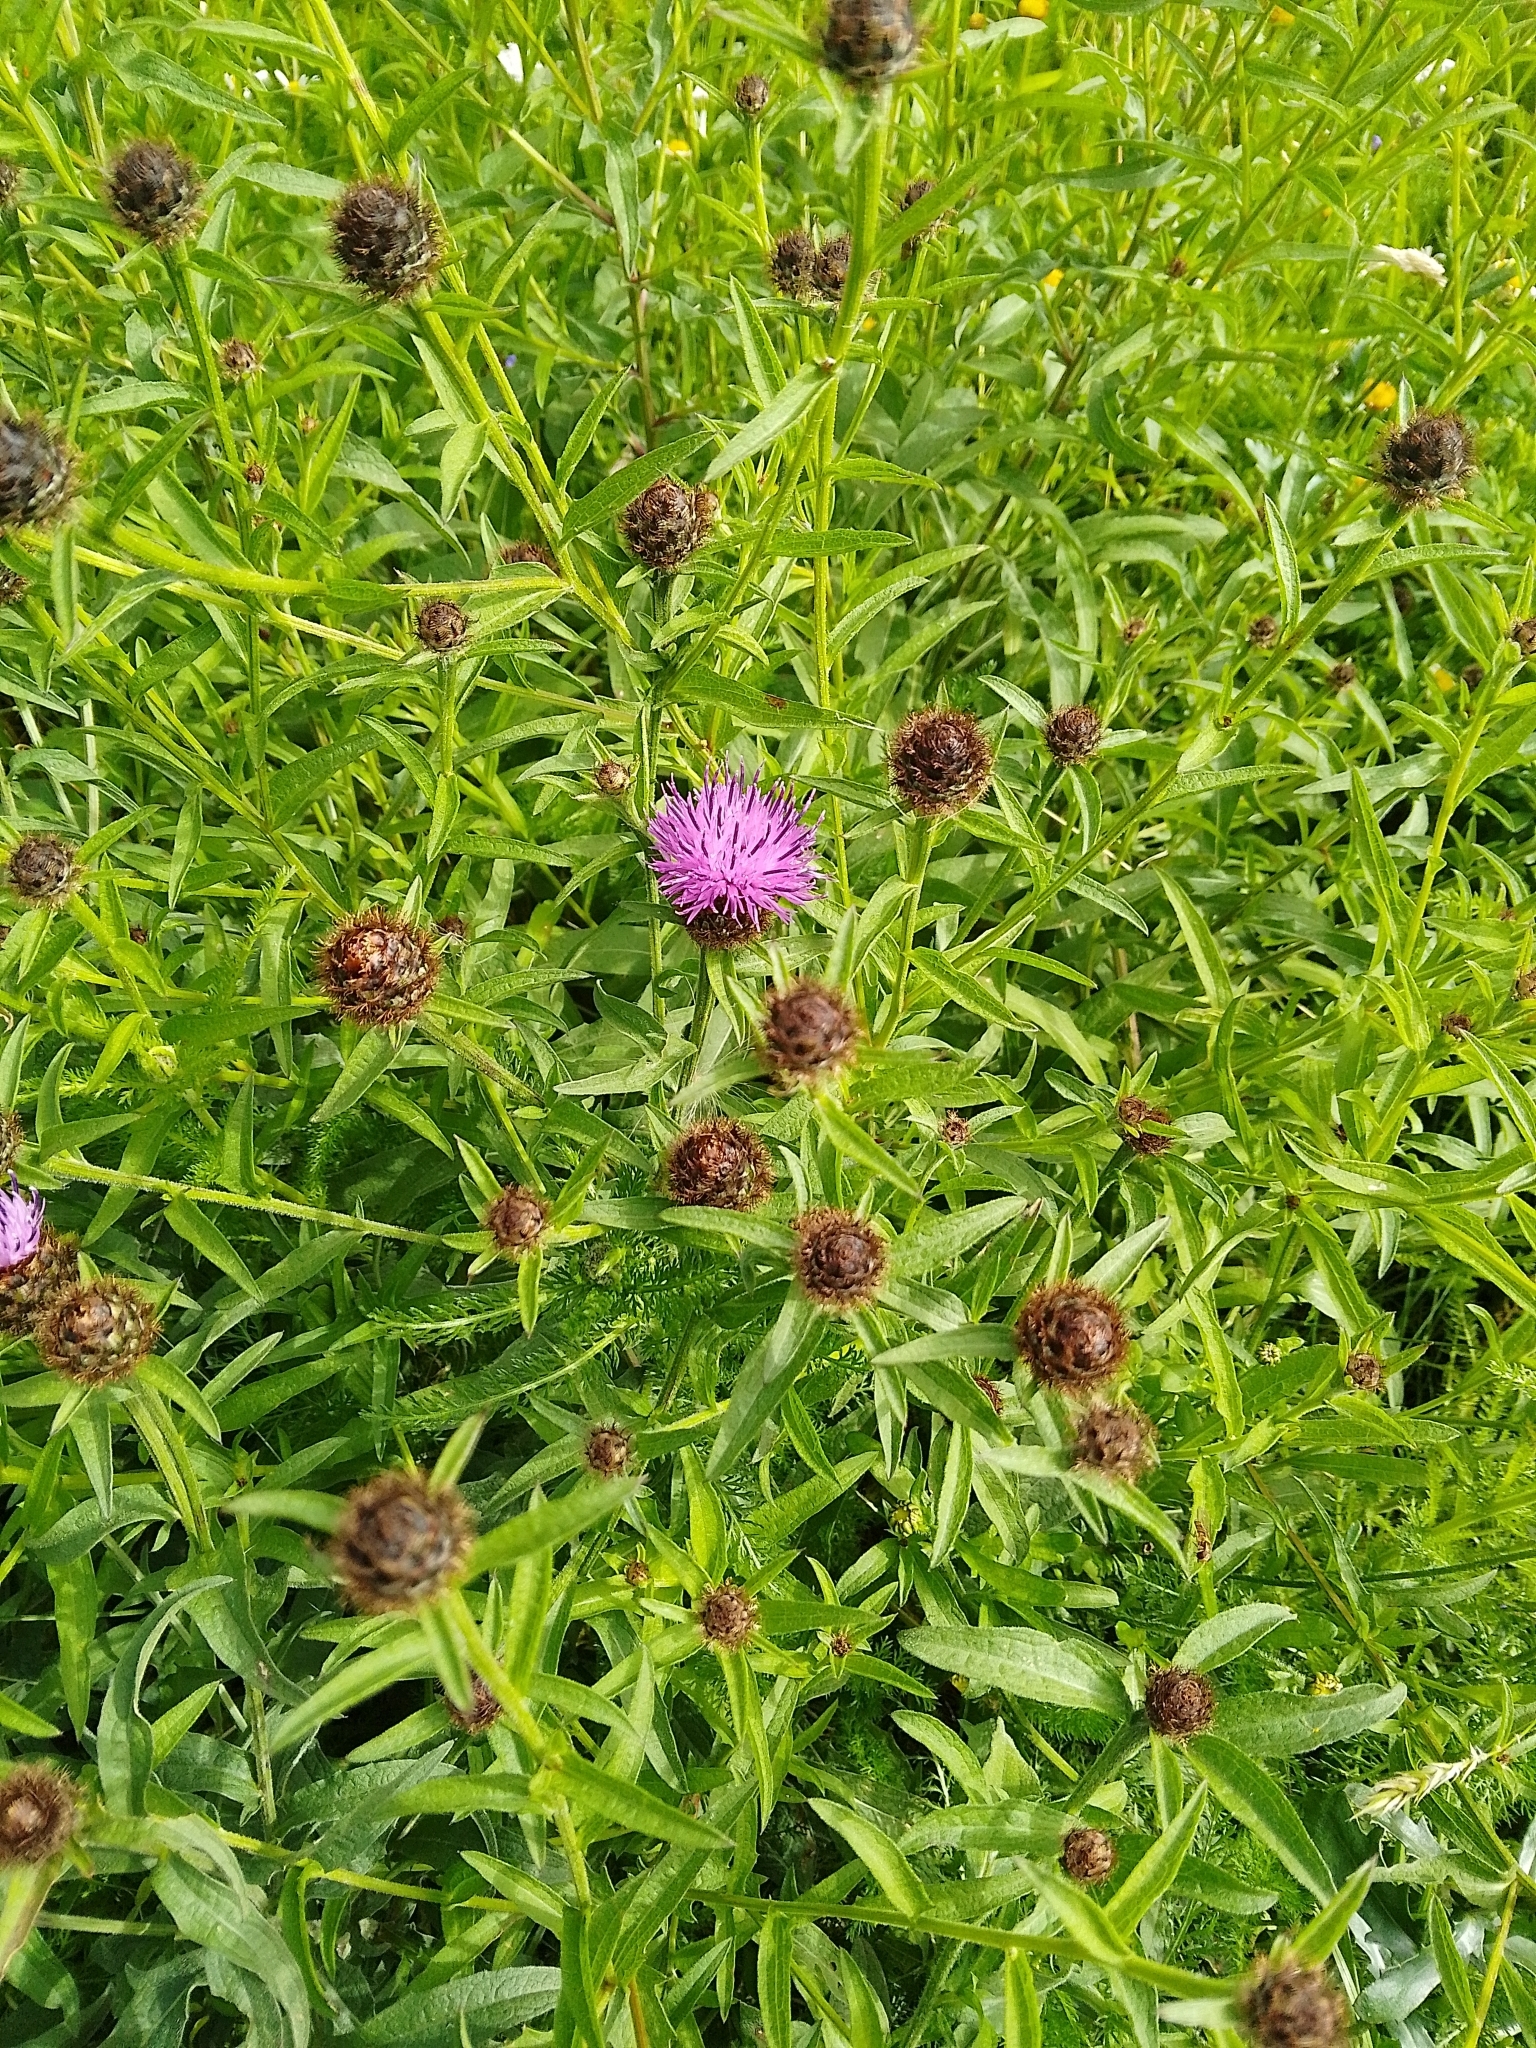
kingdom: Plantae
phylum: Tracheophyta
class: Magnoliopsida
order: Asterales
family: Asteraceae
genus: Centaurea
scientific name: Centaurea nigra
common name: Lesser knapweed
